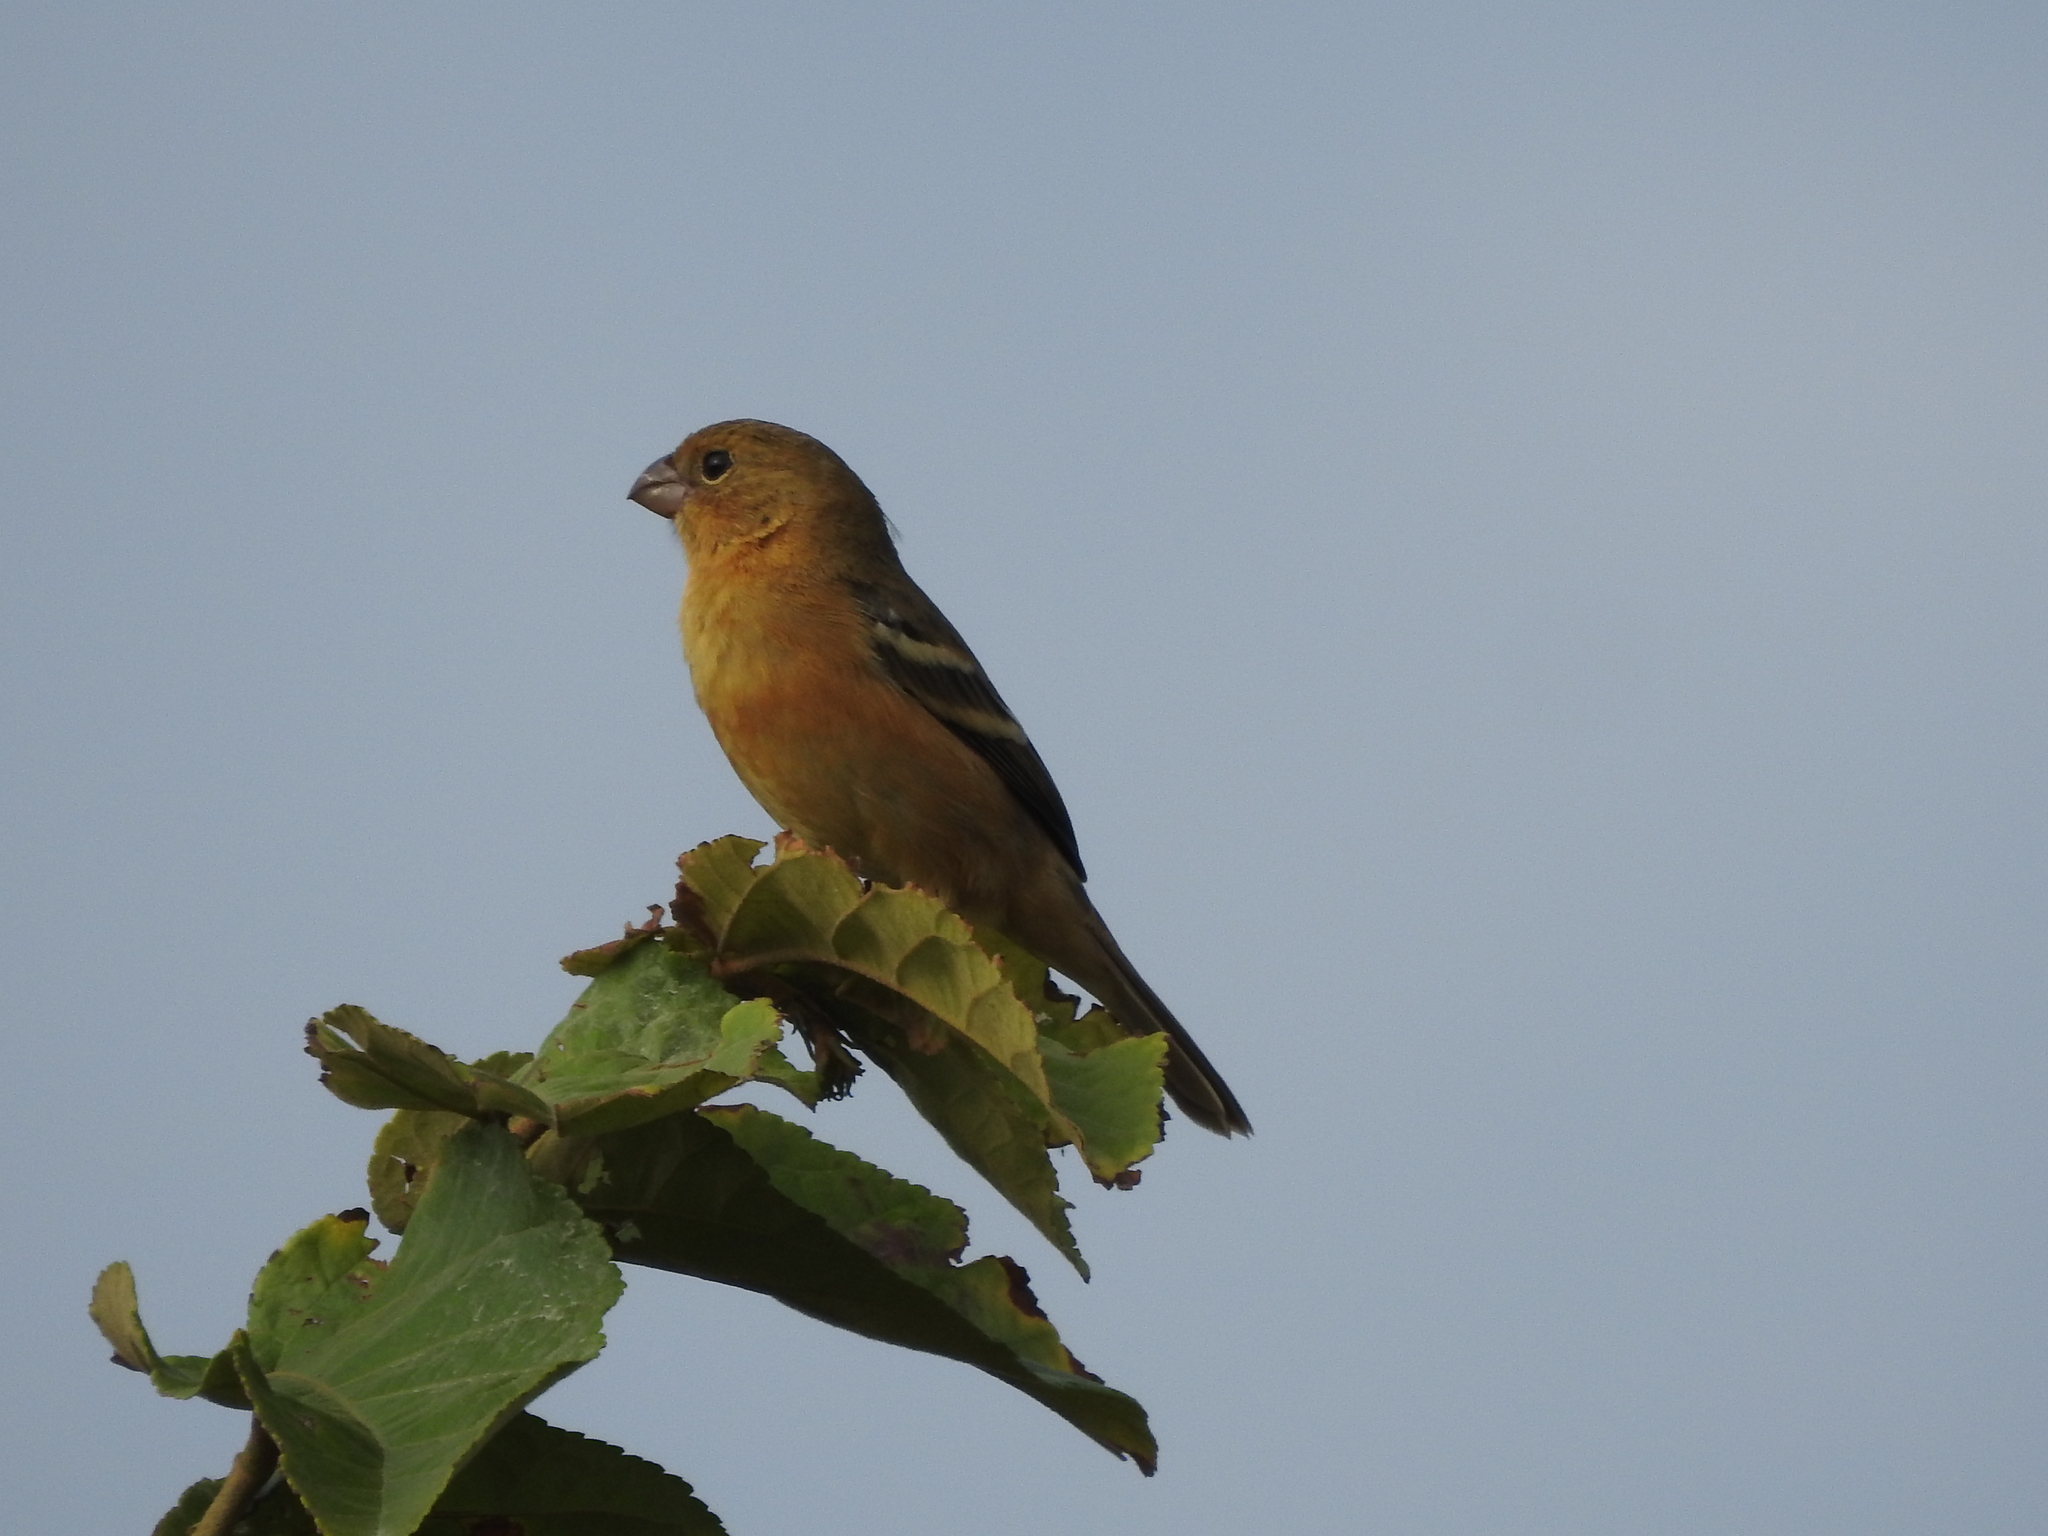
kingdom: Animalia
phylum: Chordata
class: Aves
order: Passeriformes
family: Thraupidae
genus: Sporophila
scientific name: Sporophila morelleti
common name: Morelet's seedeater
